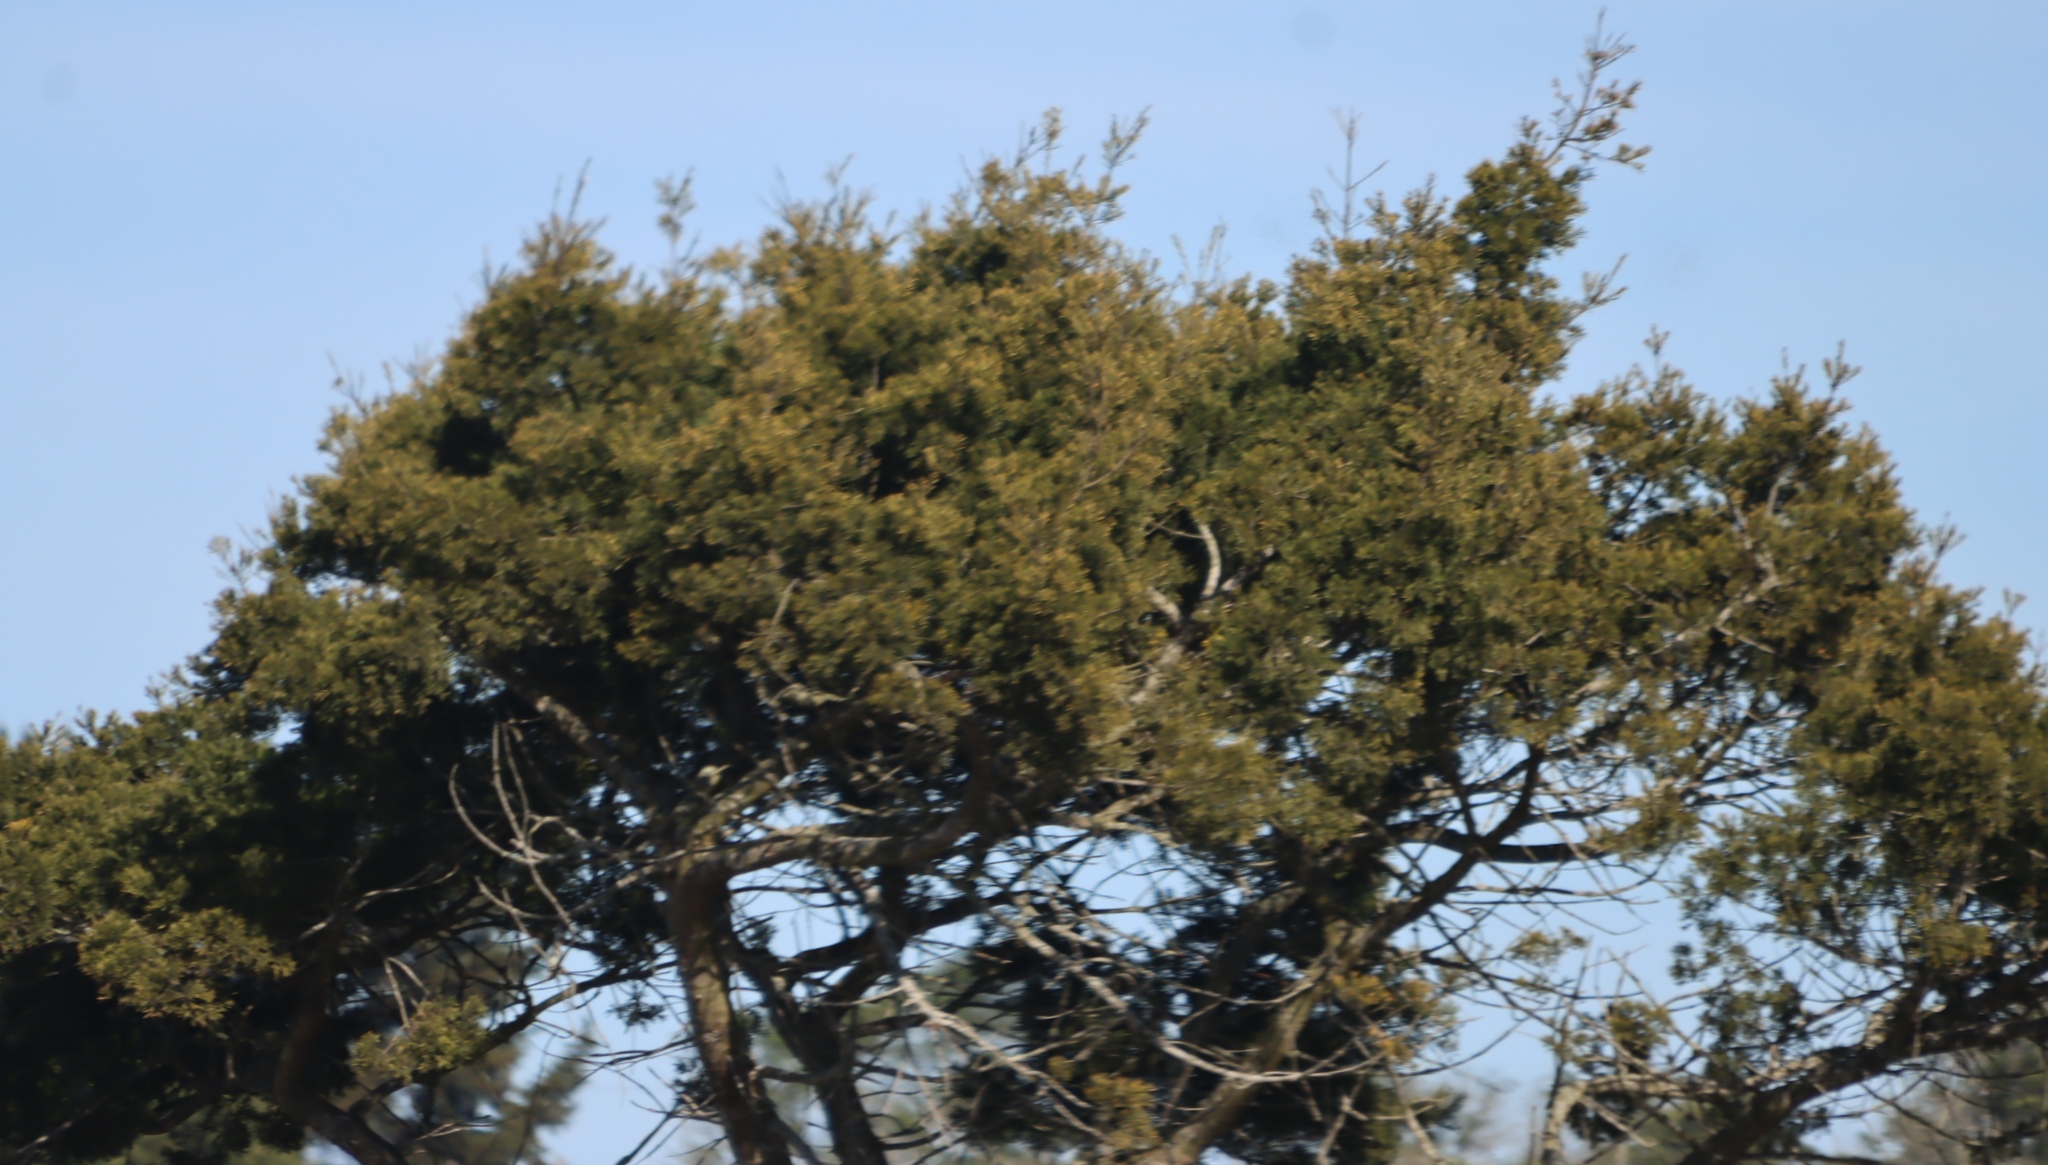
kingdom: Plantae
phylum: Tracheophyta
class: Pinopsida
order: Pinales
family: Podocarpaceae
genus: Afrocarpus
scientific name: Afrocarpus falcatus
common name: Bastard yellowwood
